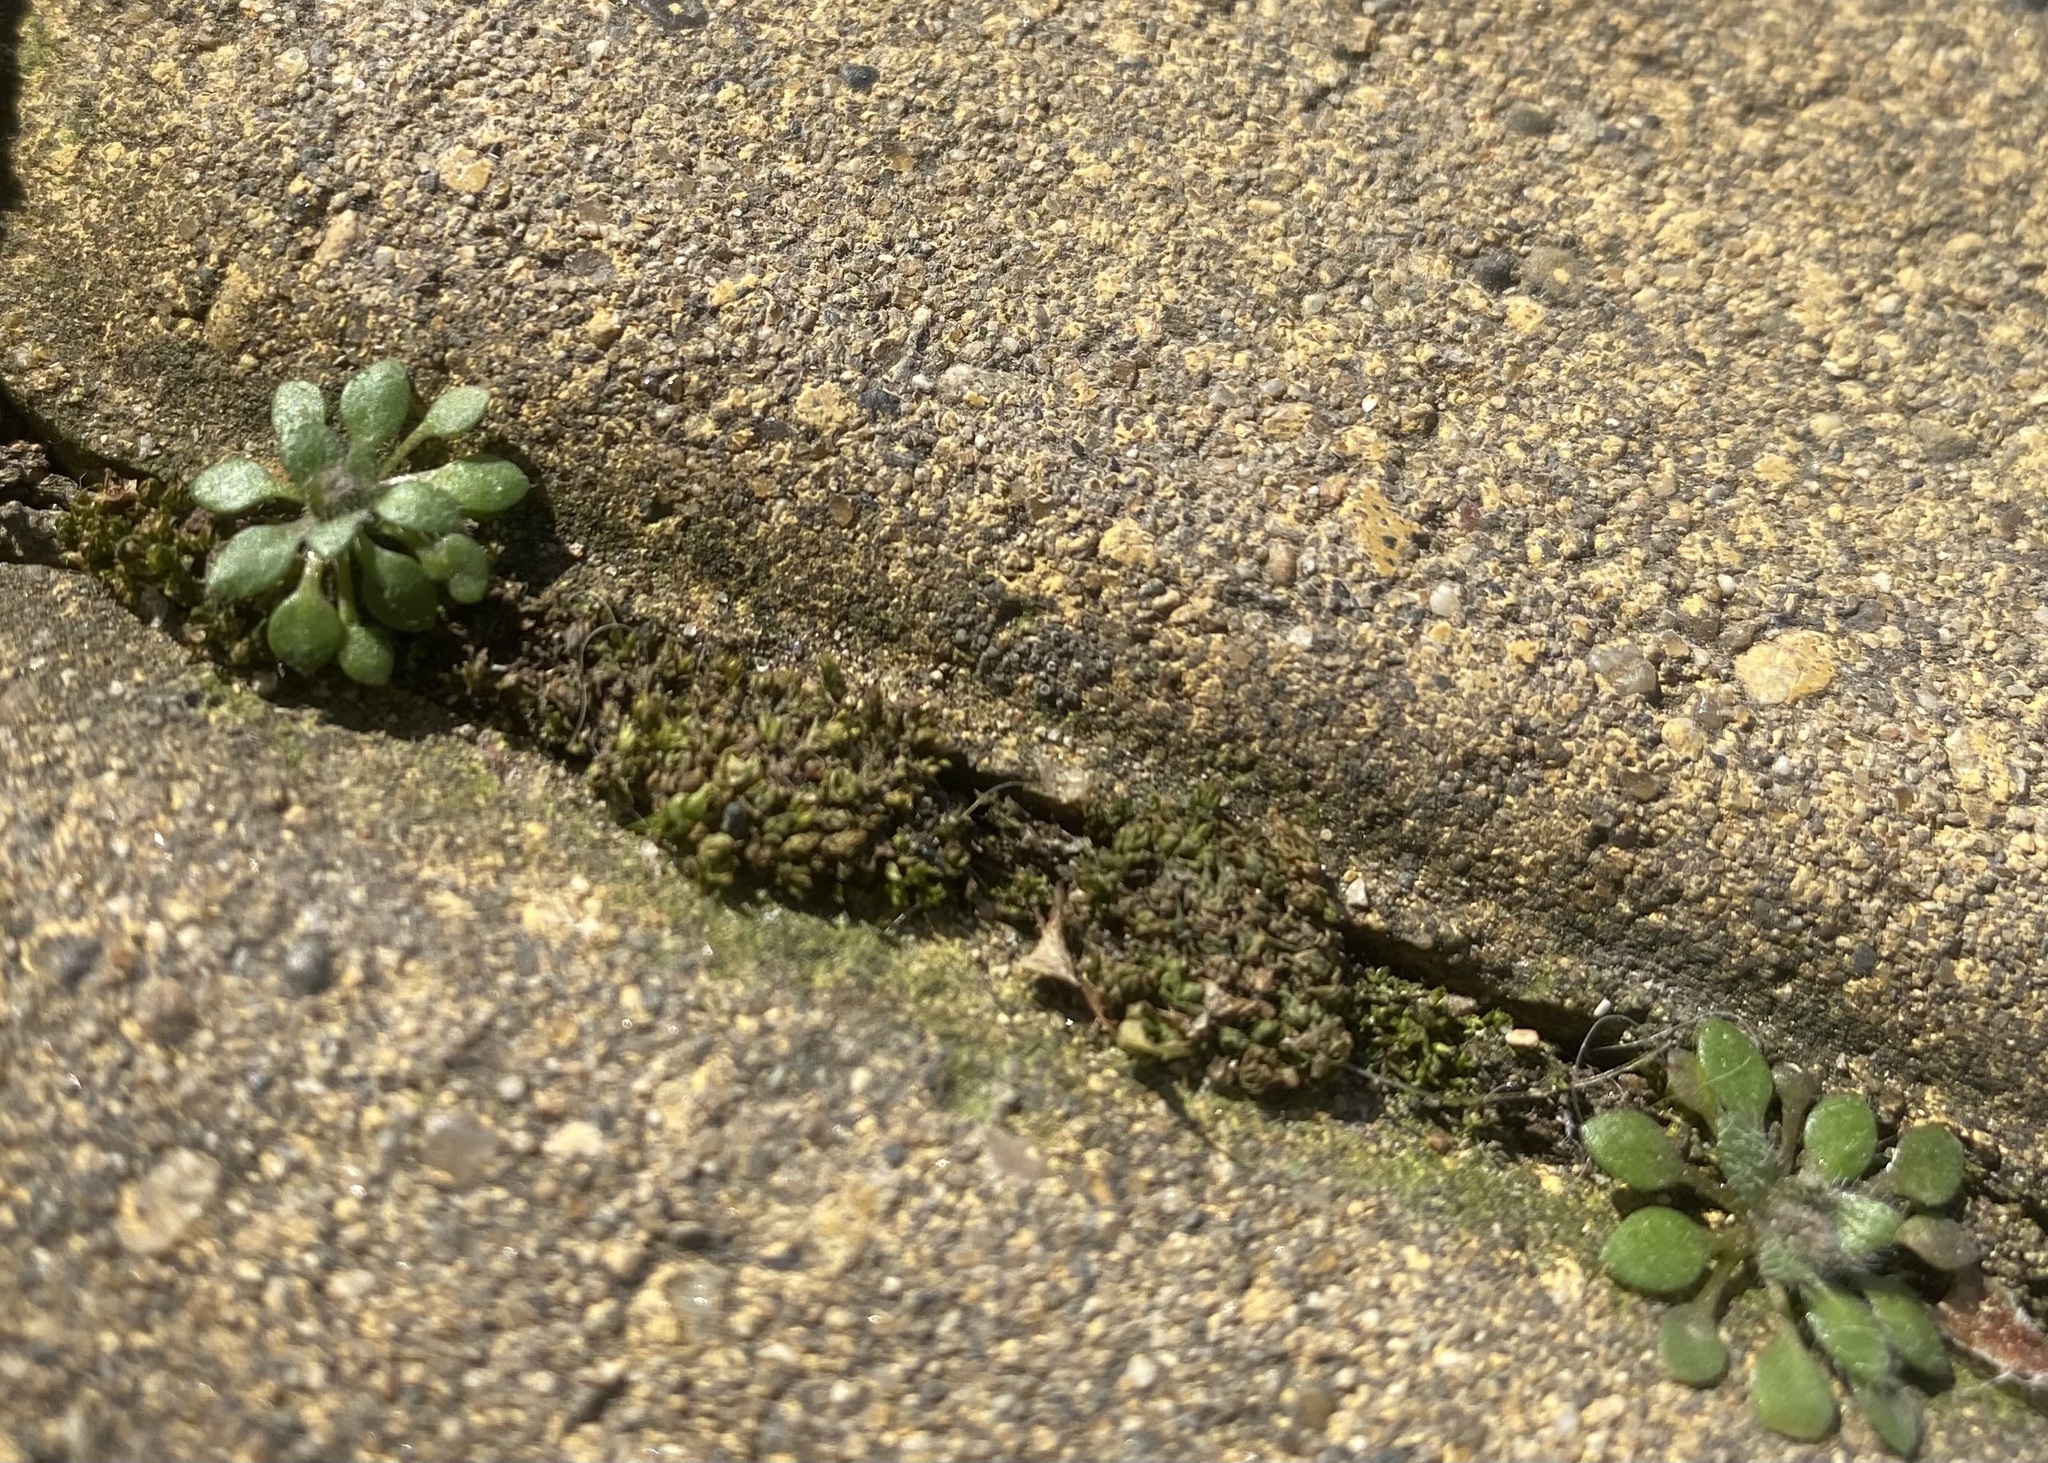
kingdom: Plantae
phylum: Tracheophyta
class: Magnoliopsida
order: Brassicales
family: Brassicaceae
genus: Draba
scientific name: Draba verna
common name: Spring draba
